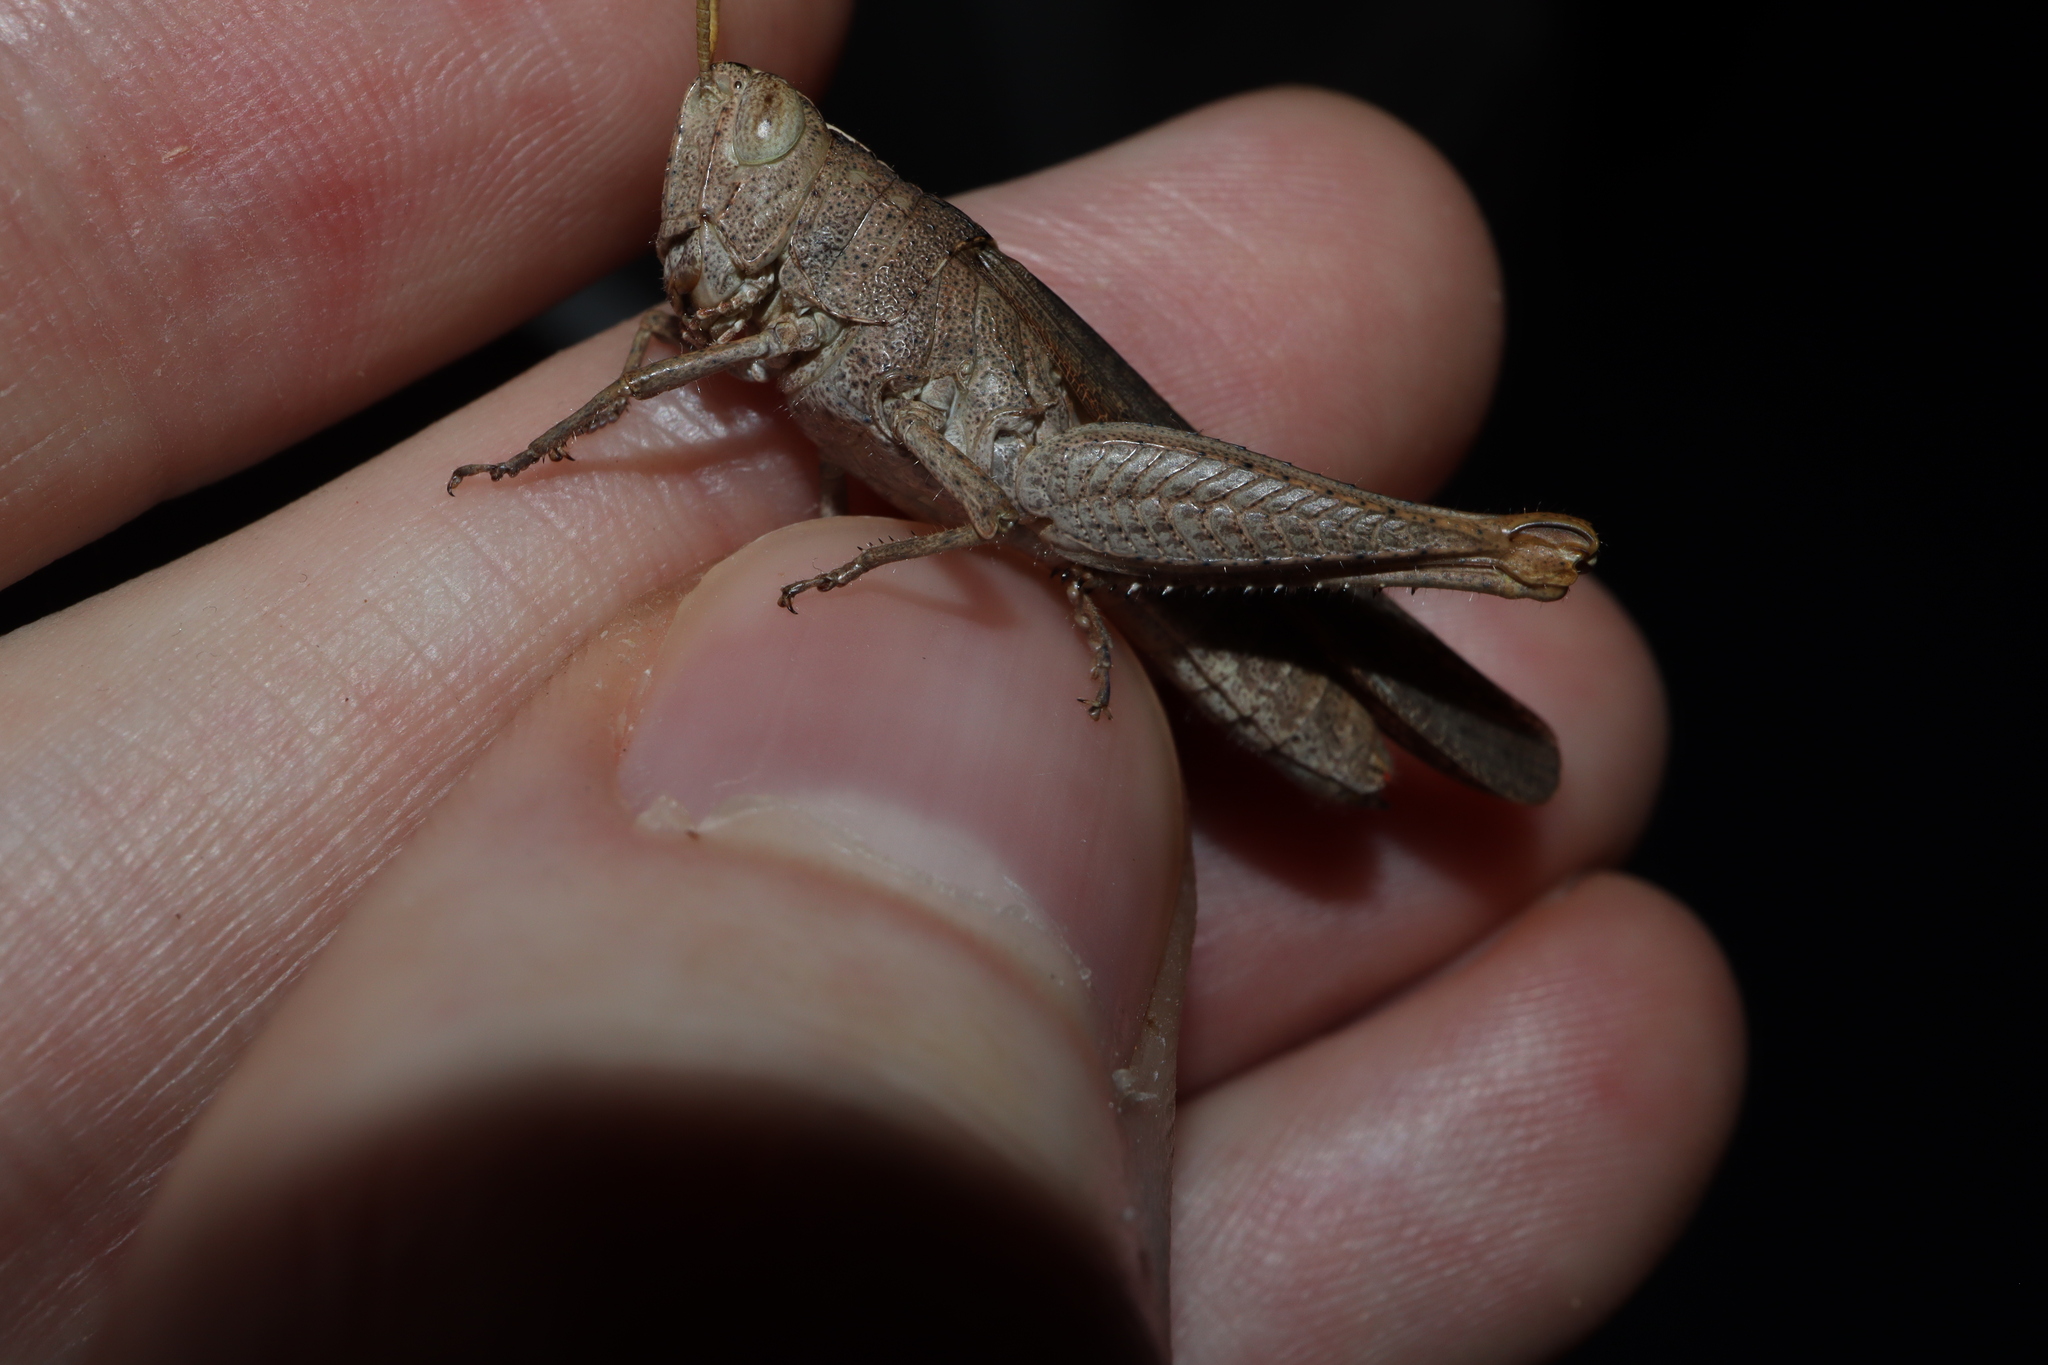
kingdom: Animalia
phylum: Arthropoda
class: Insecta
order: Orthoptera
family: Acrididae
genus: Apotropis
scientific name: Apotropis vittata
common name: Common striped grasshopper
